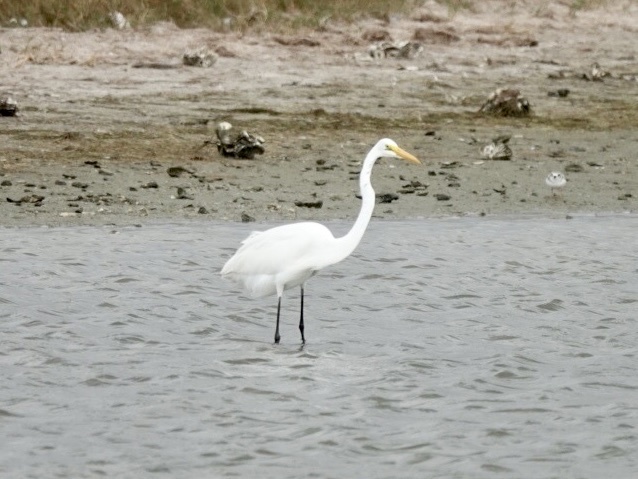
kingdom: Animalia
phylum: Chordata
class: Aves
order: Pelecaniformes
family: Ardeidae
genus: Ardea
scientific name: Ardea alba
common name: Great egret
